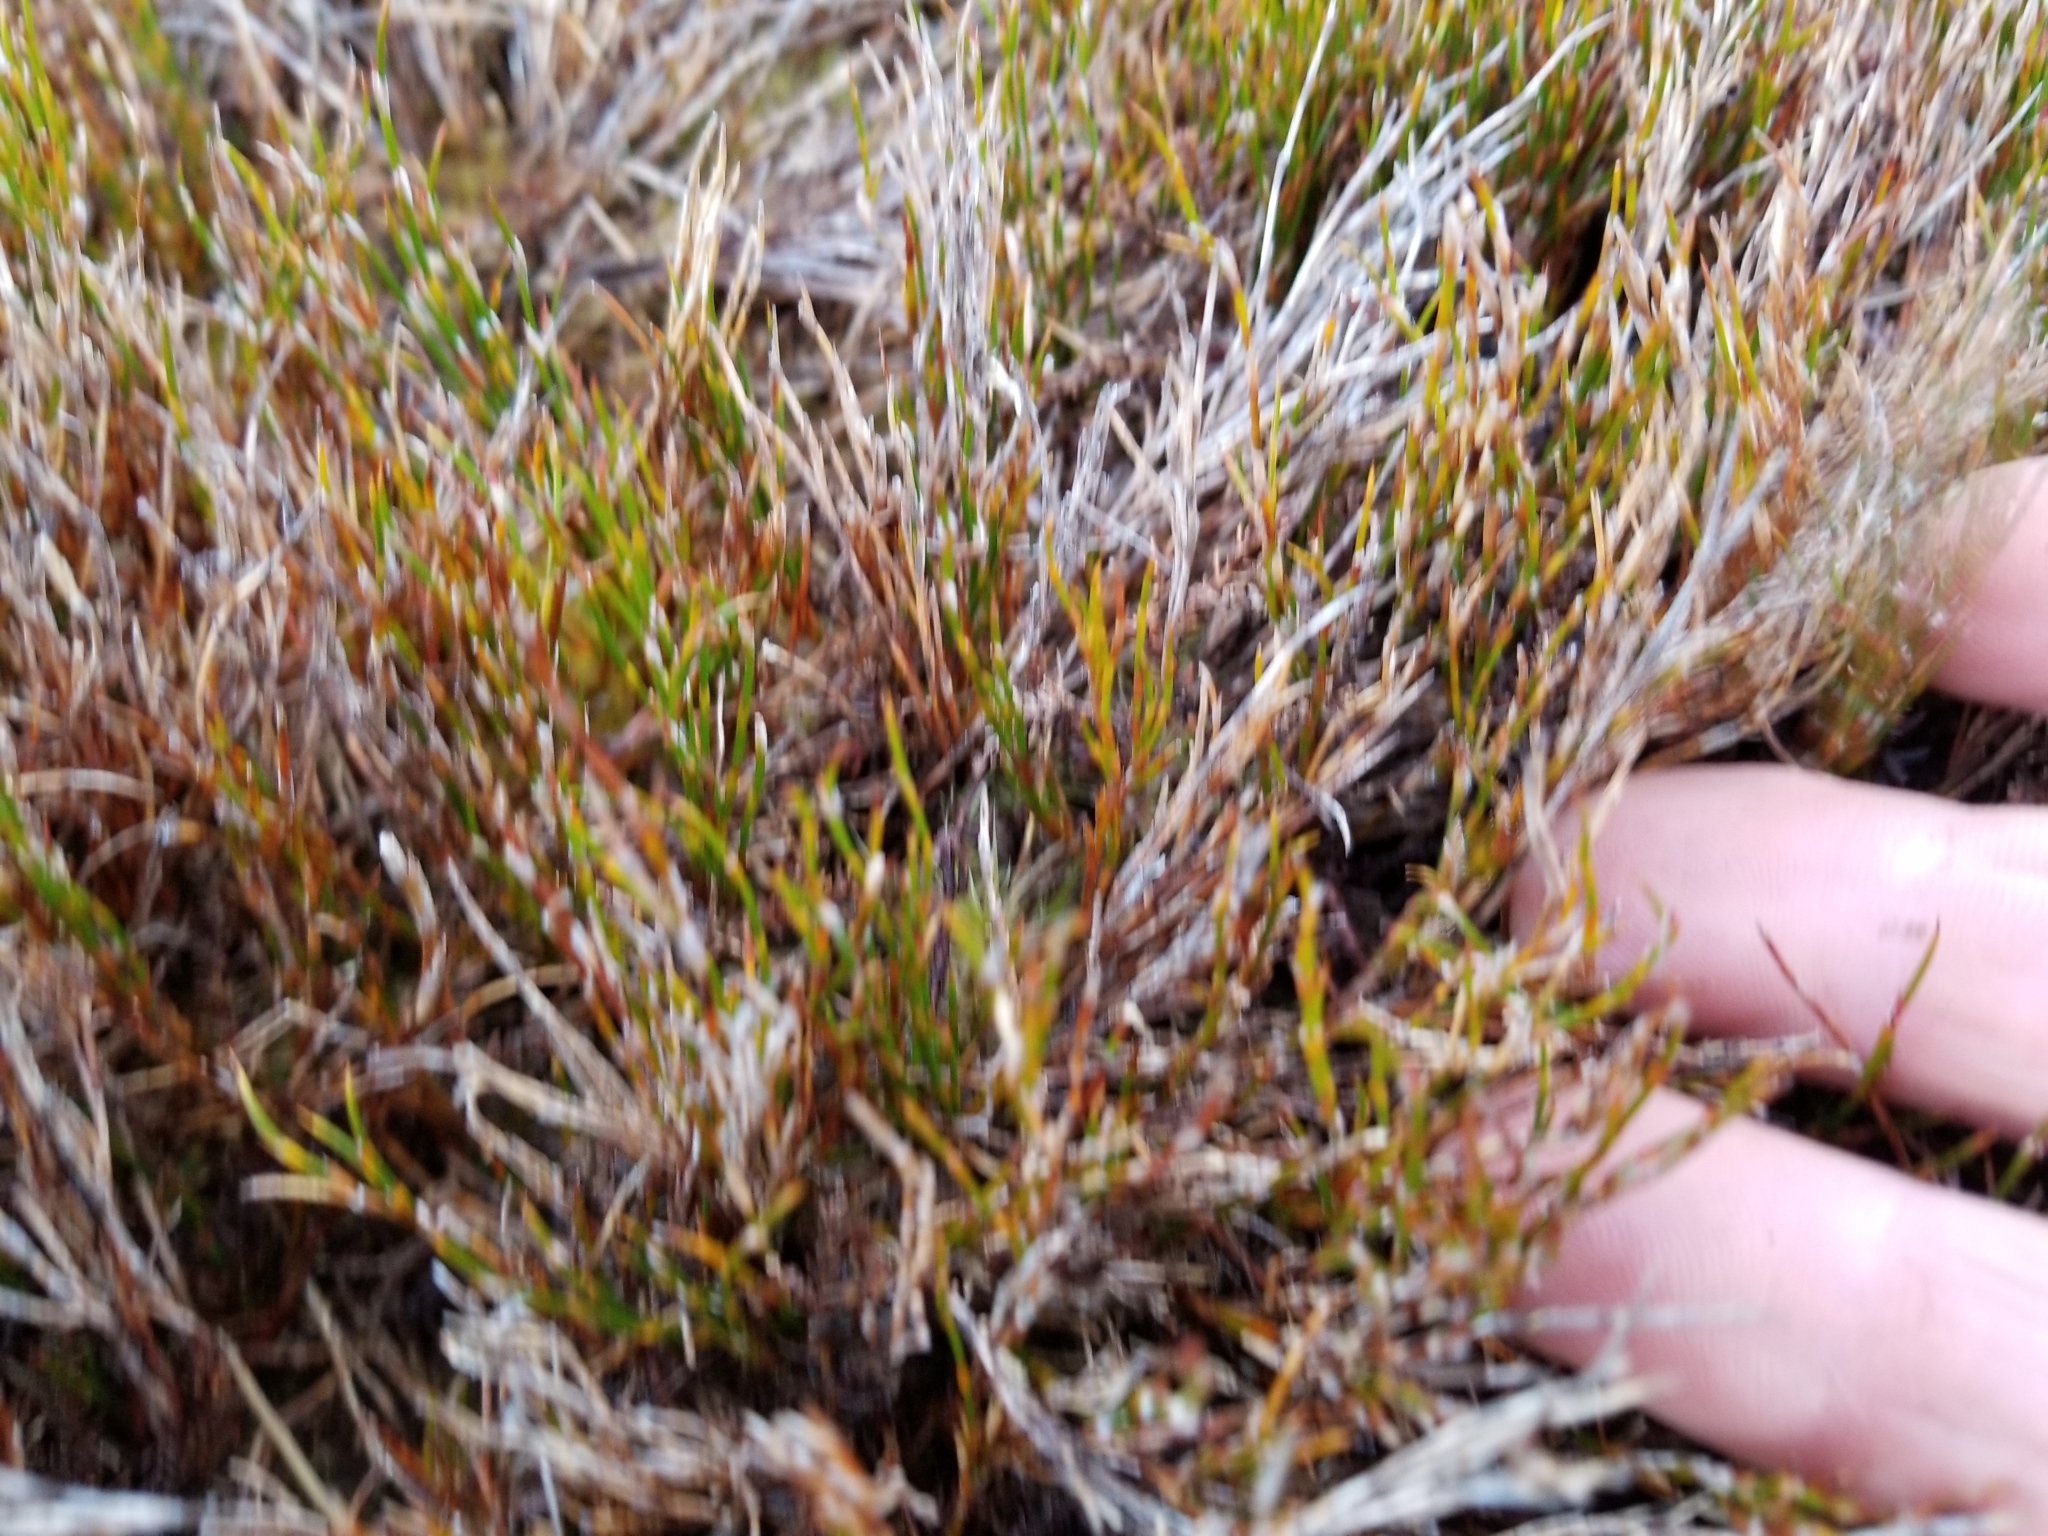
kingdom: Plantae
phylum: Tracheophyta
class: Liliopsida
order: Poales
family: Restionaceae
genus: Empodisma
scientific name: Empodisma minus
